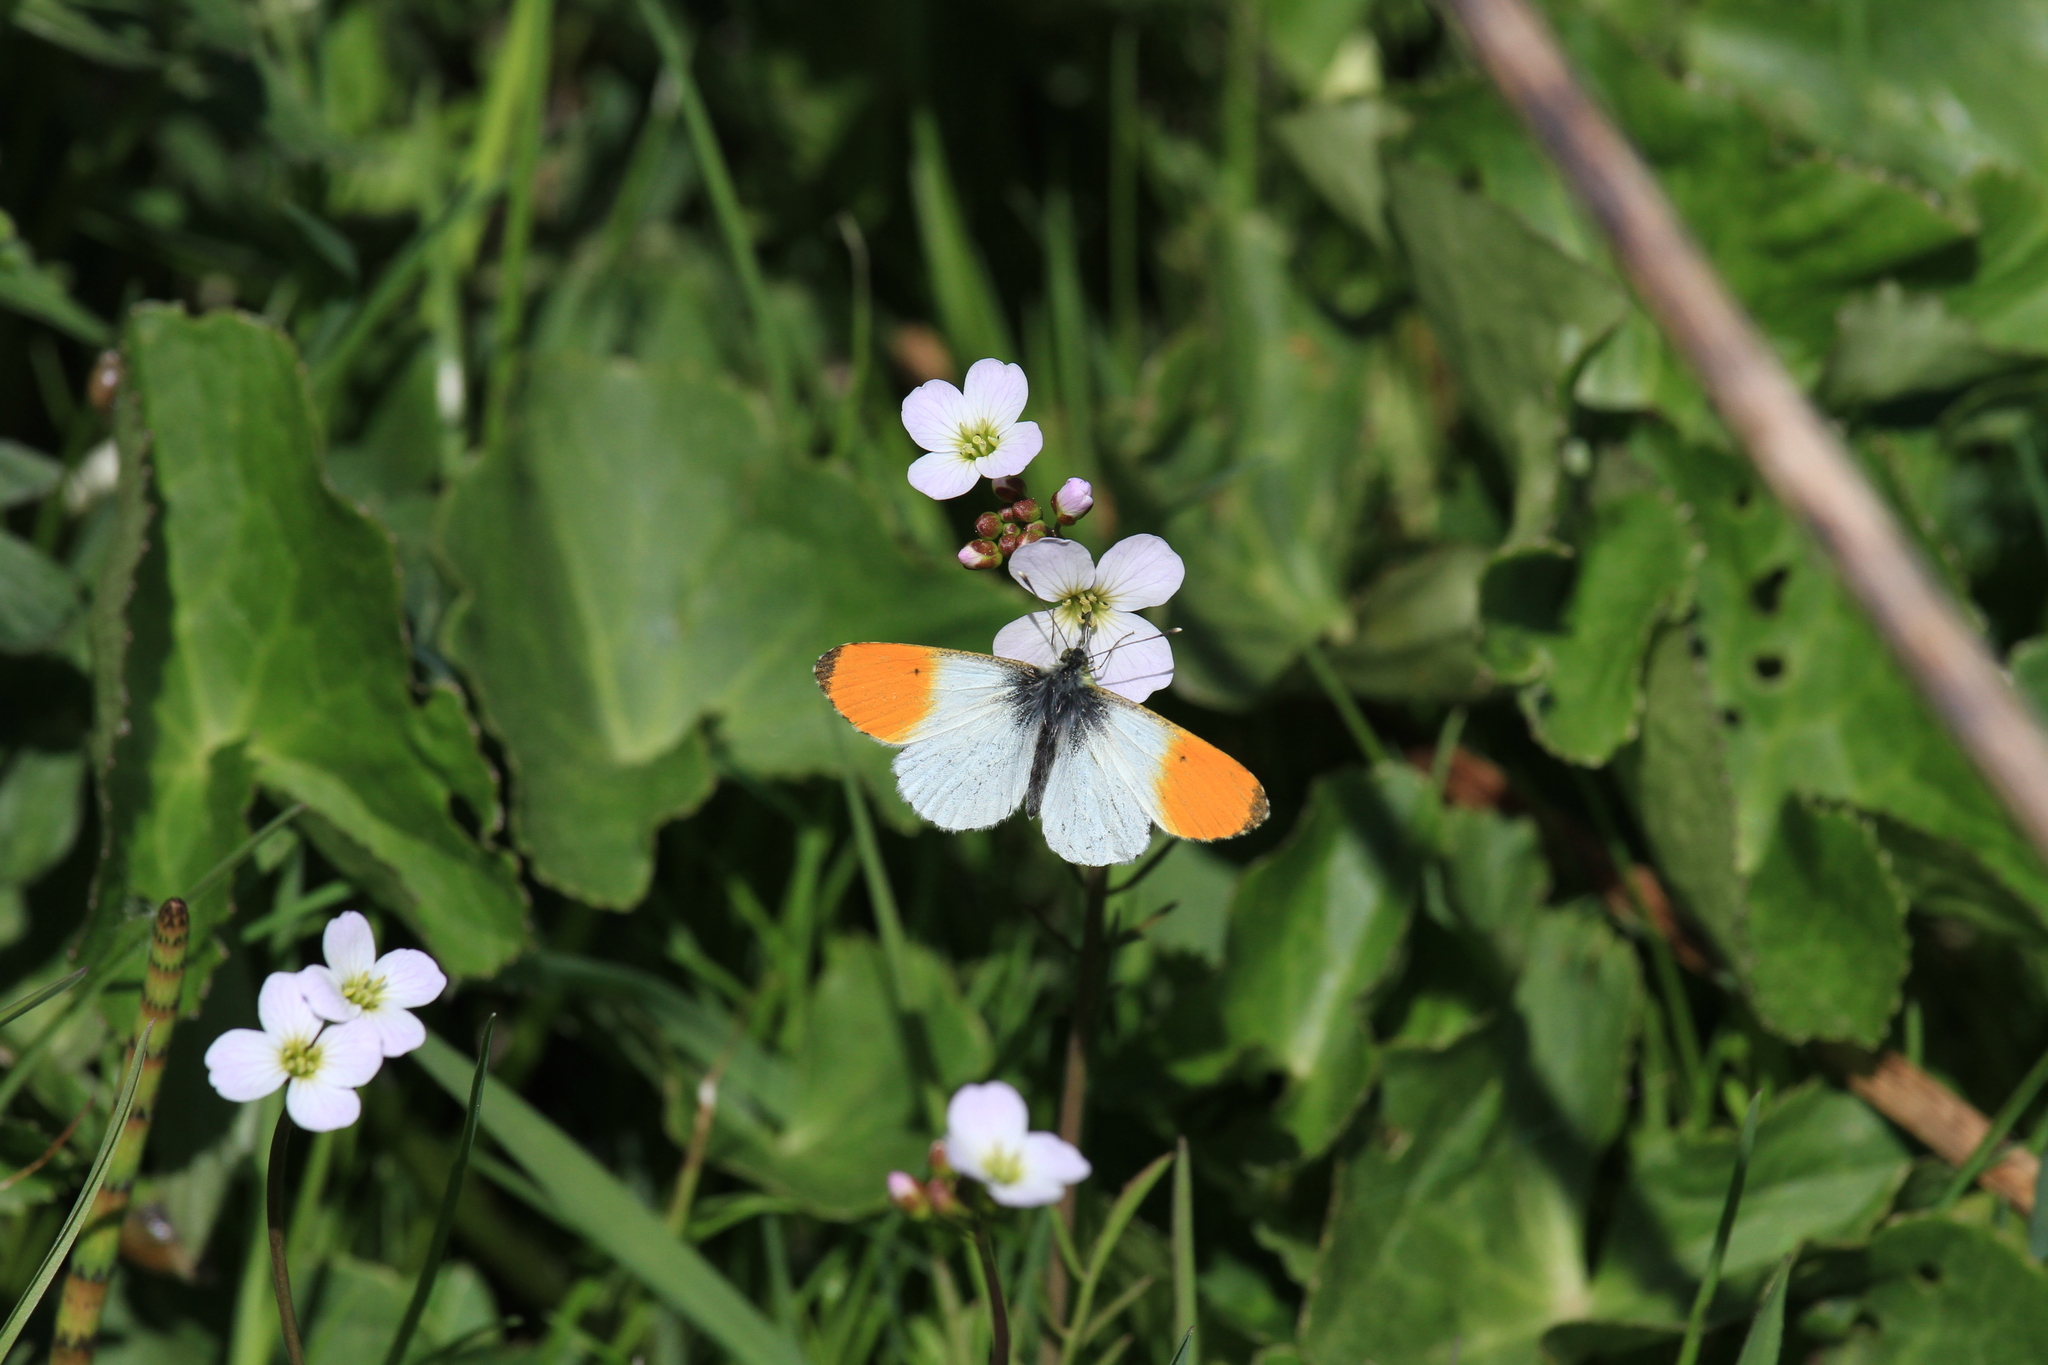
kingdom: Animalia
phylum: Arthropoda
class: Insecta
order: Lepidoptera
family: Pieridae
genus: Anthocharis
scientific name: Anthocharis cardamines
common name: Orange-tip
